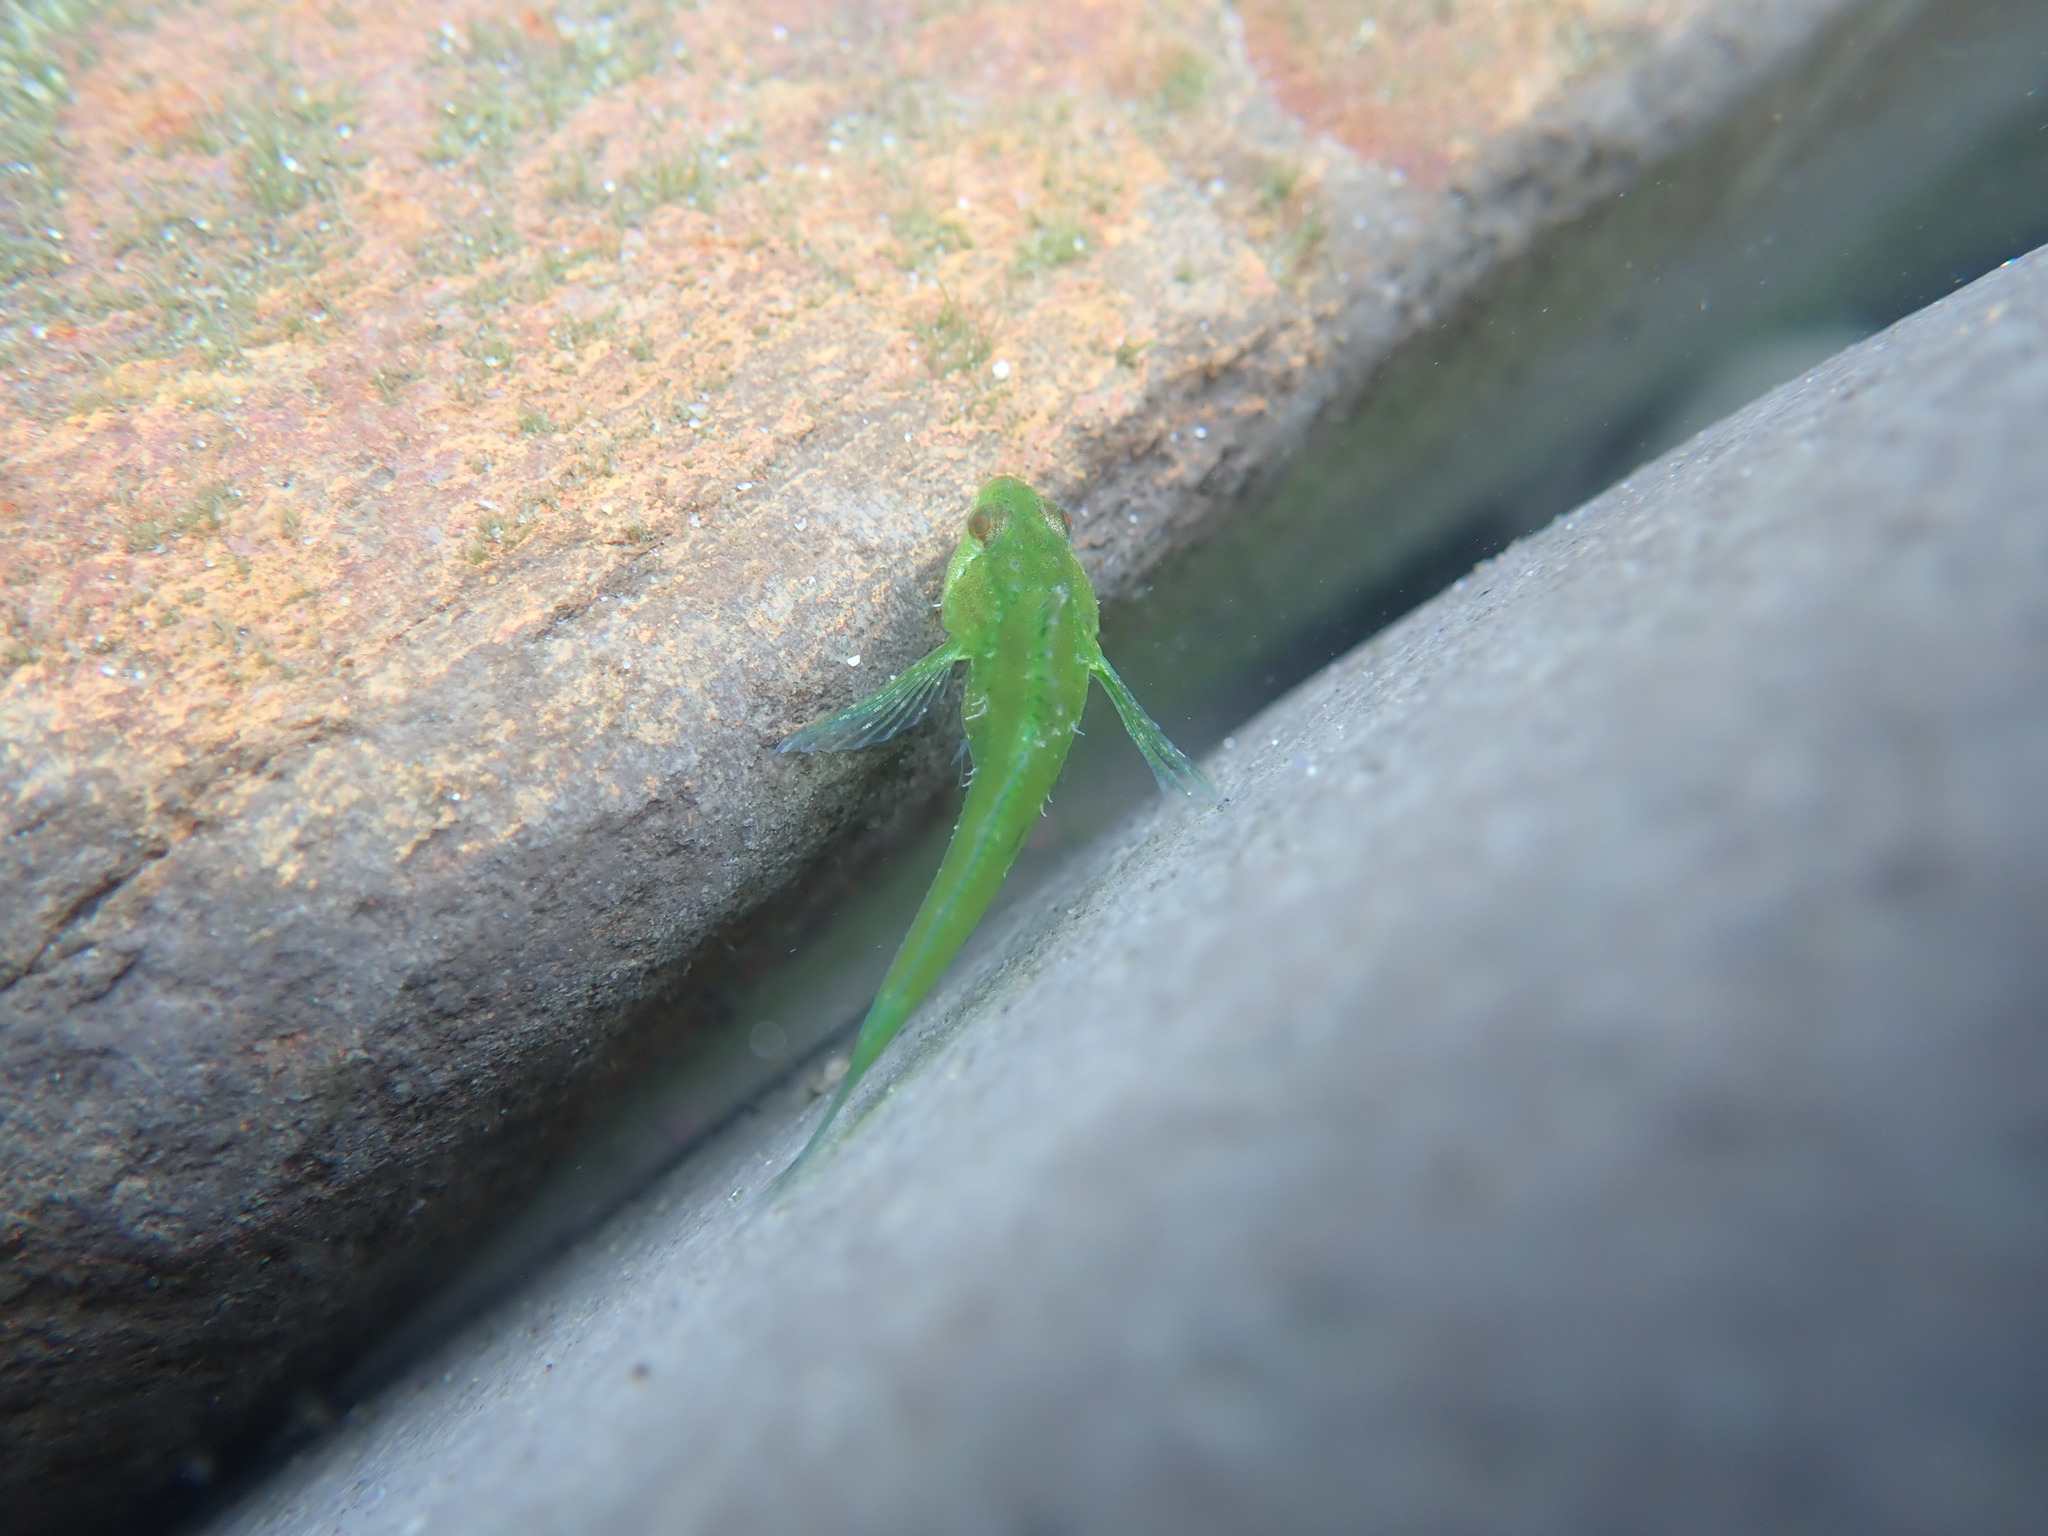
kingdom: Animalia
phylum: Chordata
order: Scorpaeniformes
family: Cottidae
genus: Oligocottus
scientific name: Oligocottus snyderi
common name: Fluffy sculpin
